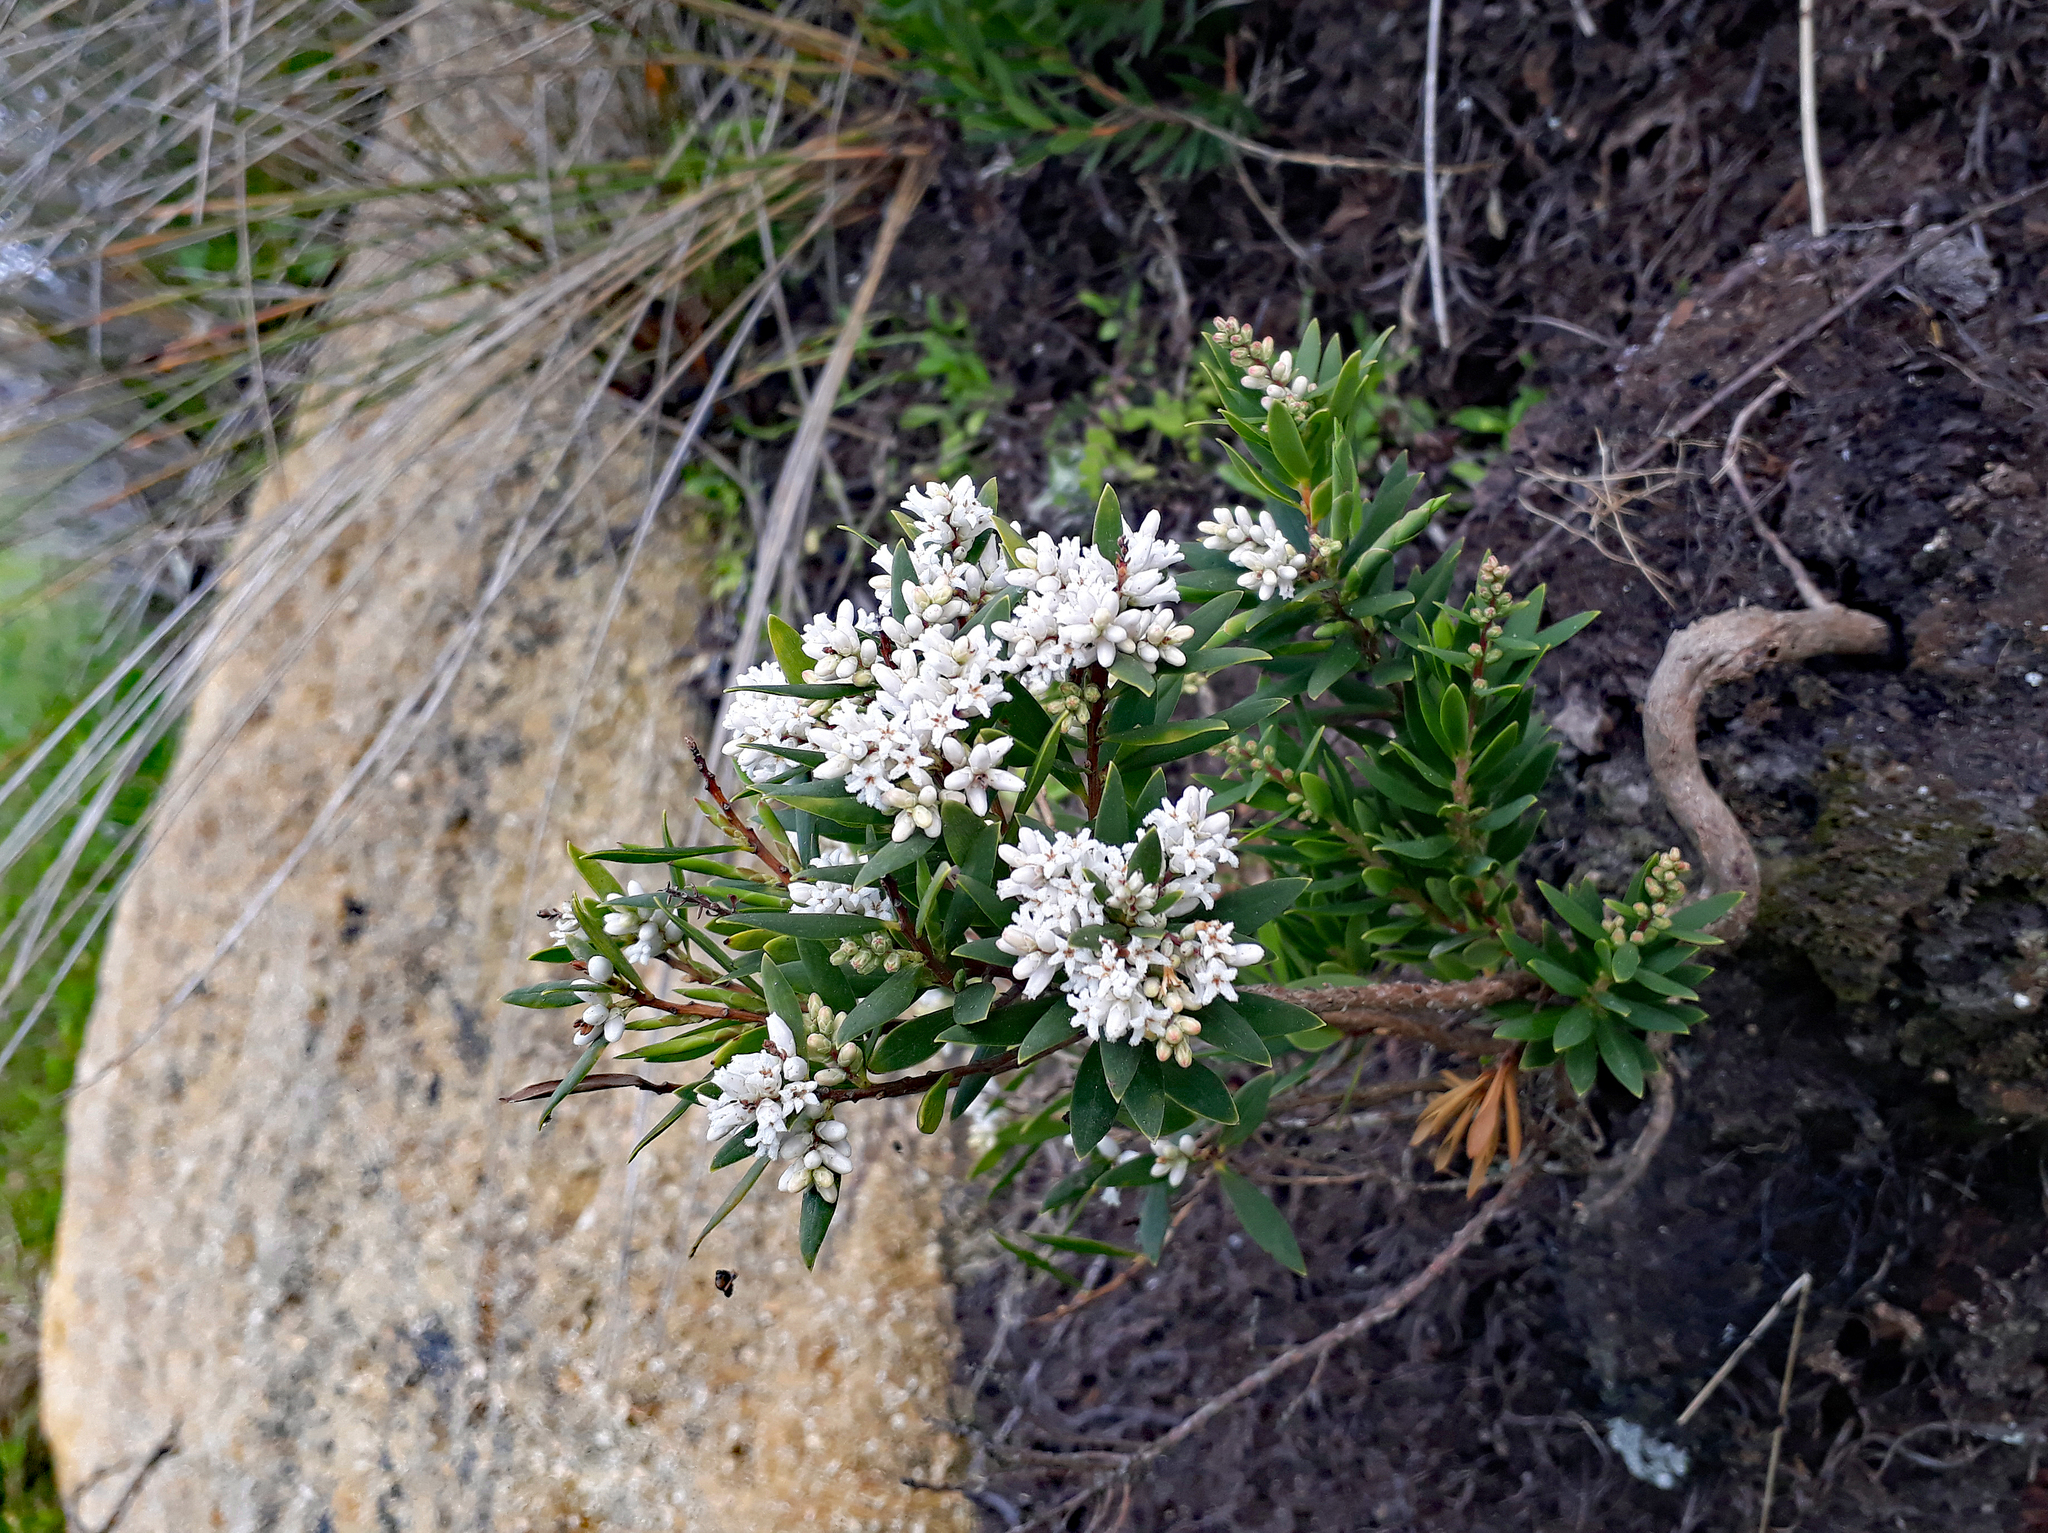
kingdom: Plantae
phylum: Tracheophyta
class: Magnoliopsida
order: Ericales
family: Ericaceae
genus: Leptecophylla
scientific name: Leptecophylla parvifolia
